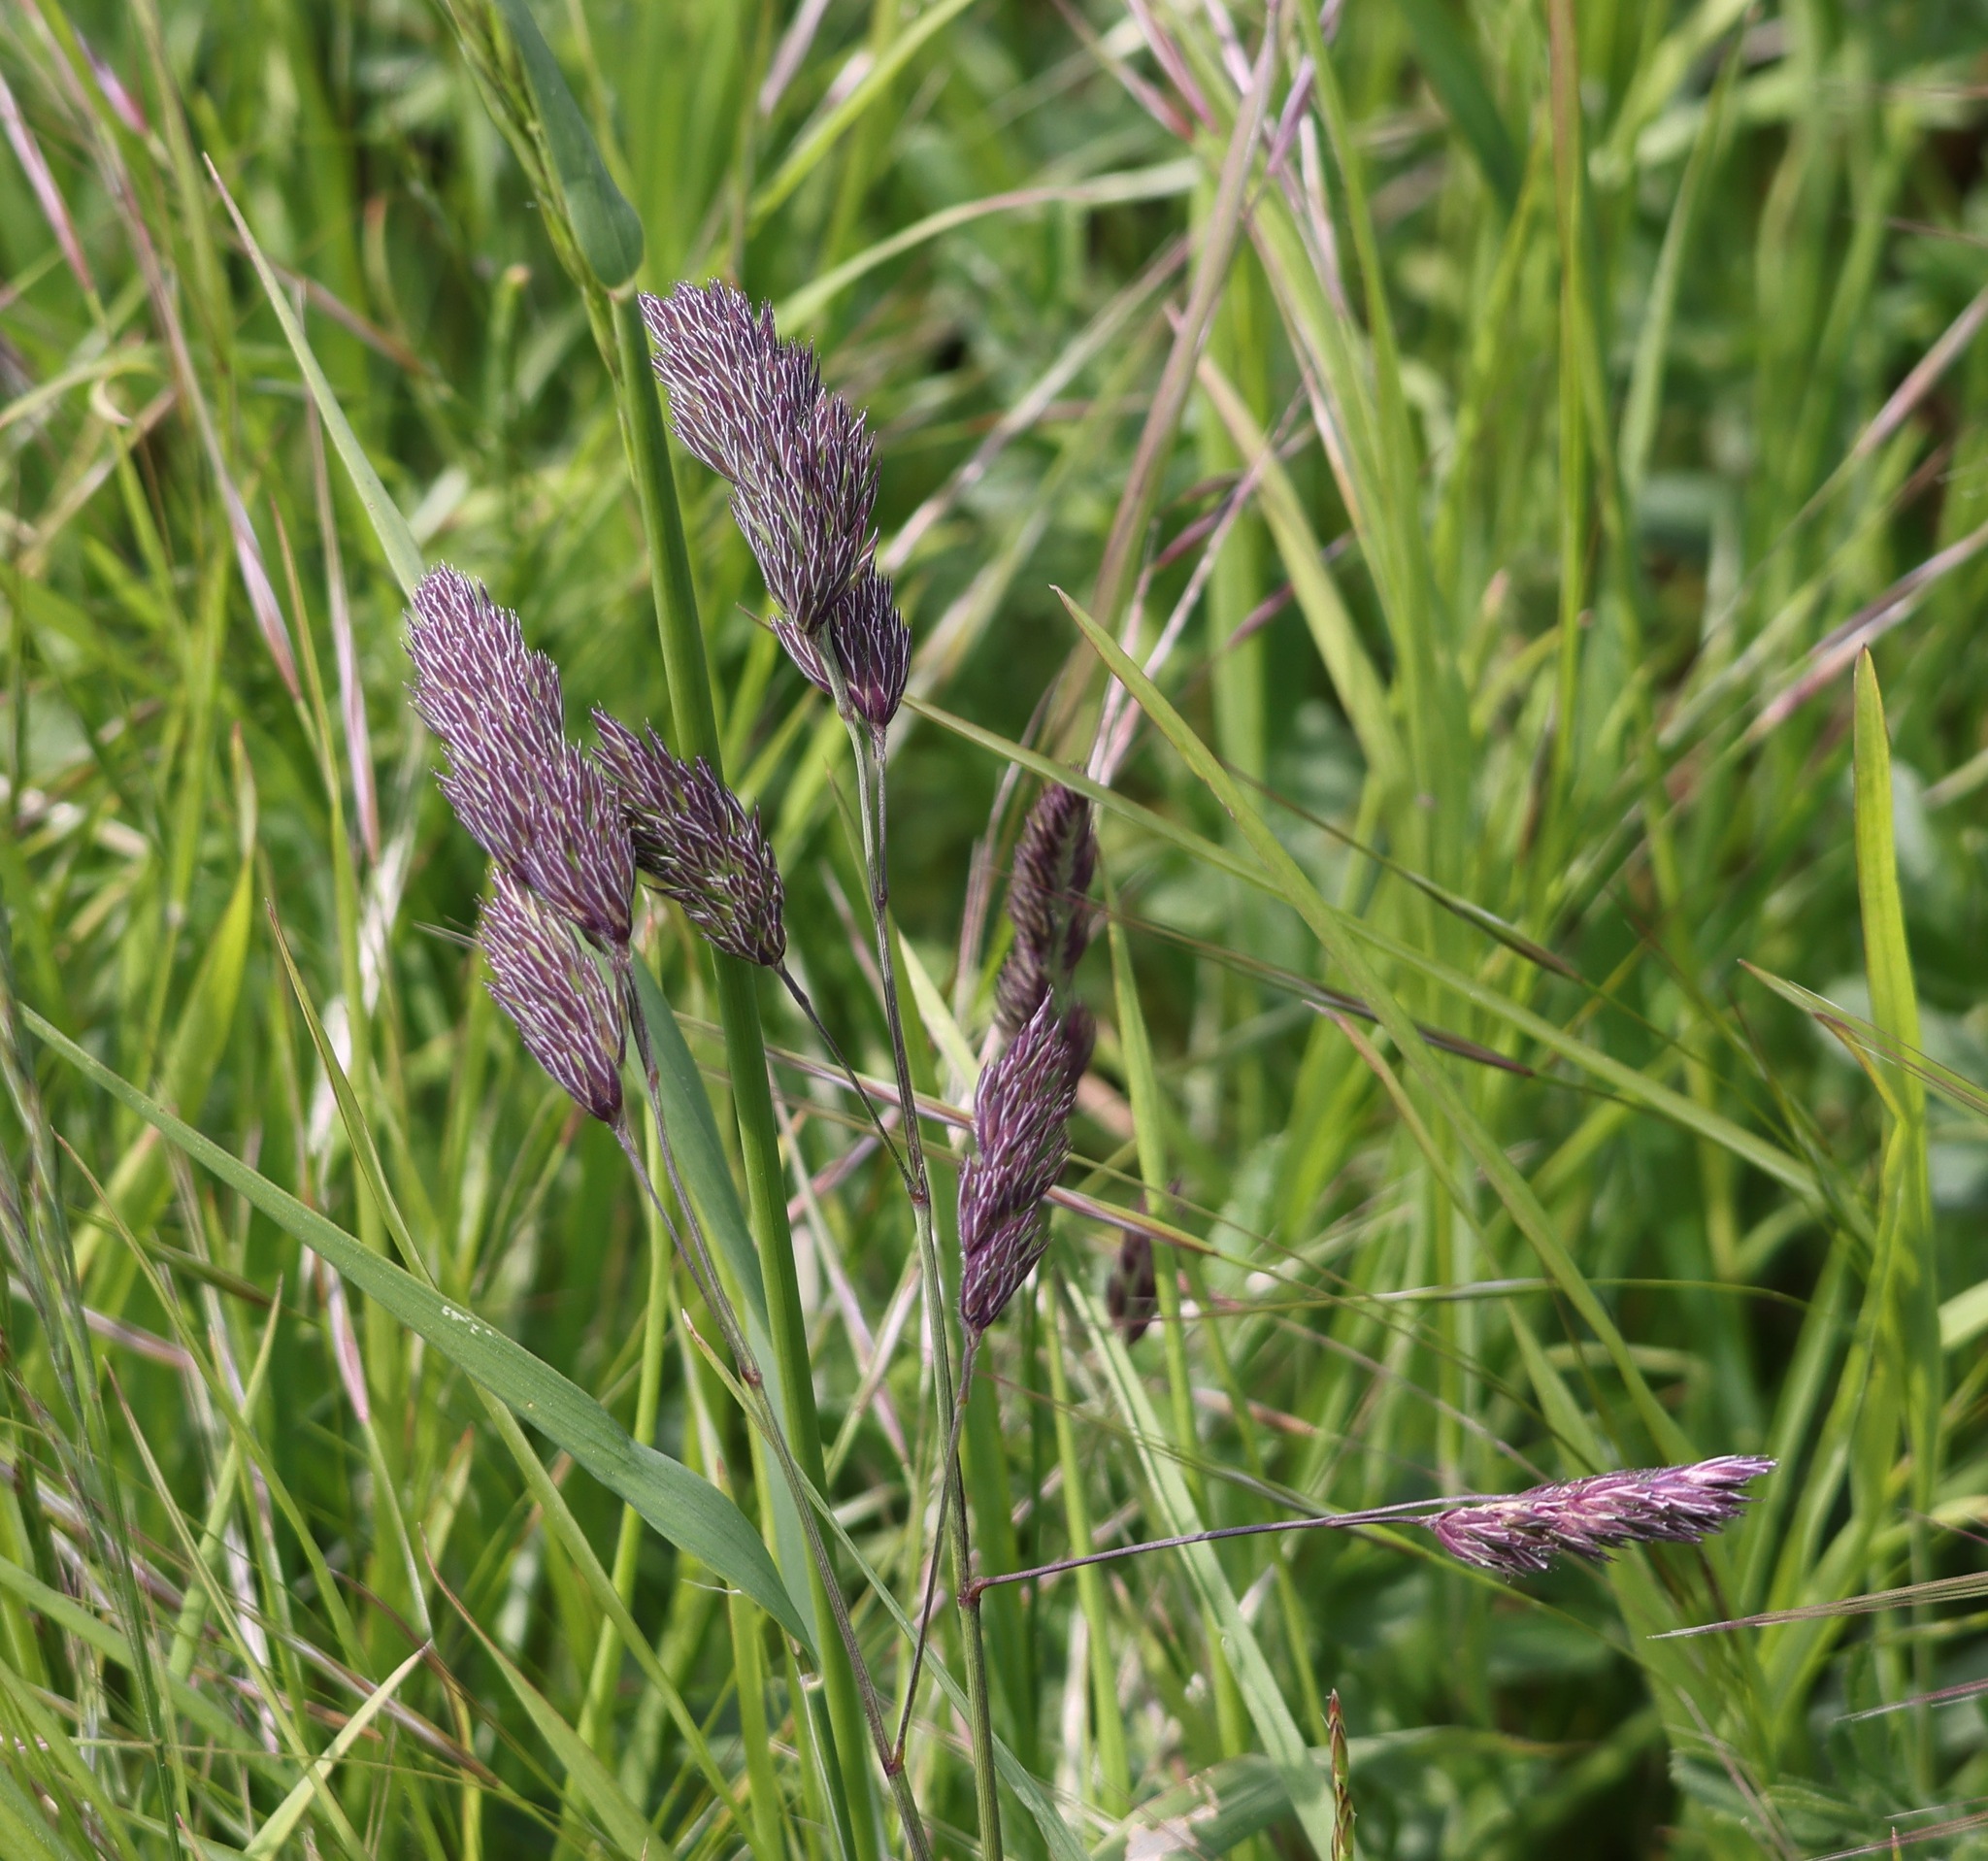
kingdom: Plantae
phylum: Tracheophyta
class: Liliopsida
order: Poales
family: Poaceae
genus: Dactylis
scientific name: Dactylis glomerata
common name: Orchardgrass
